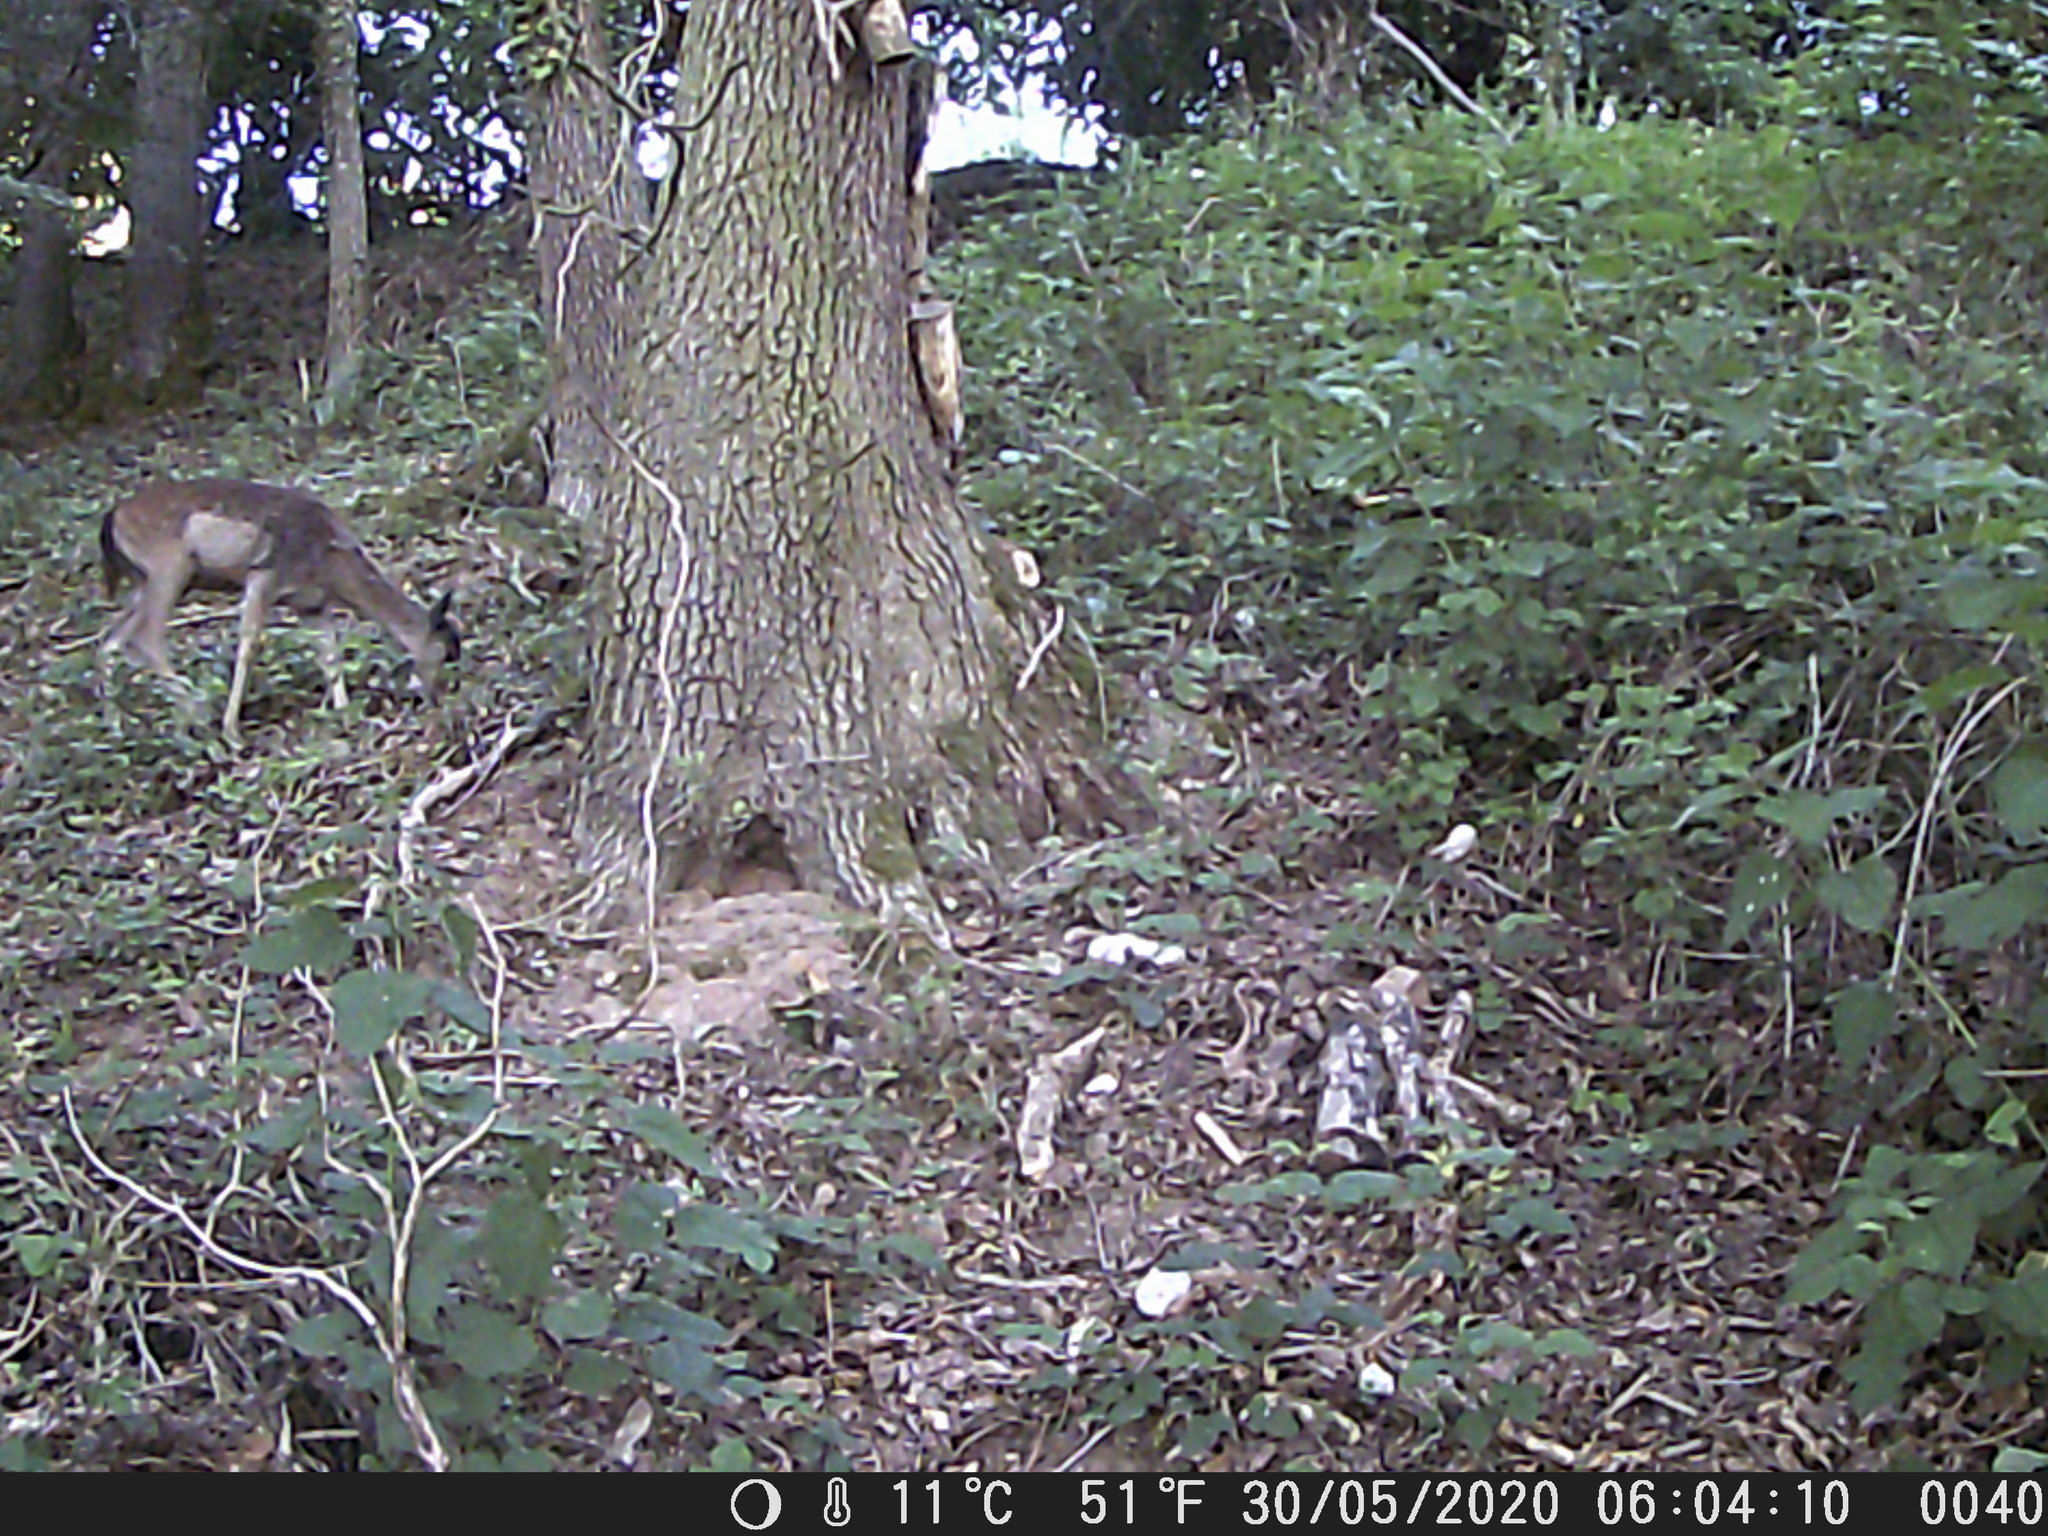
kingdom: Animalia
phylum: Chordata
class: Mammalia
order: Artiodactyla
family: Cervidae
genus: Dama
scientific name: Dama dama
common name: Fallow deer
